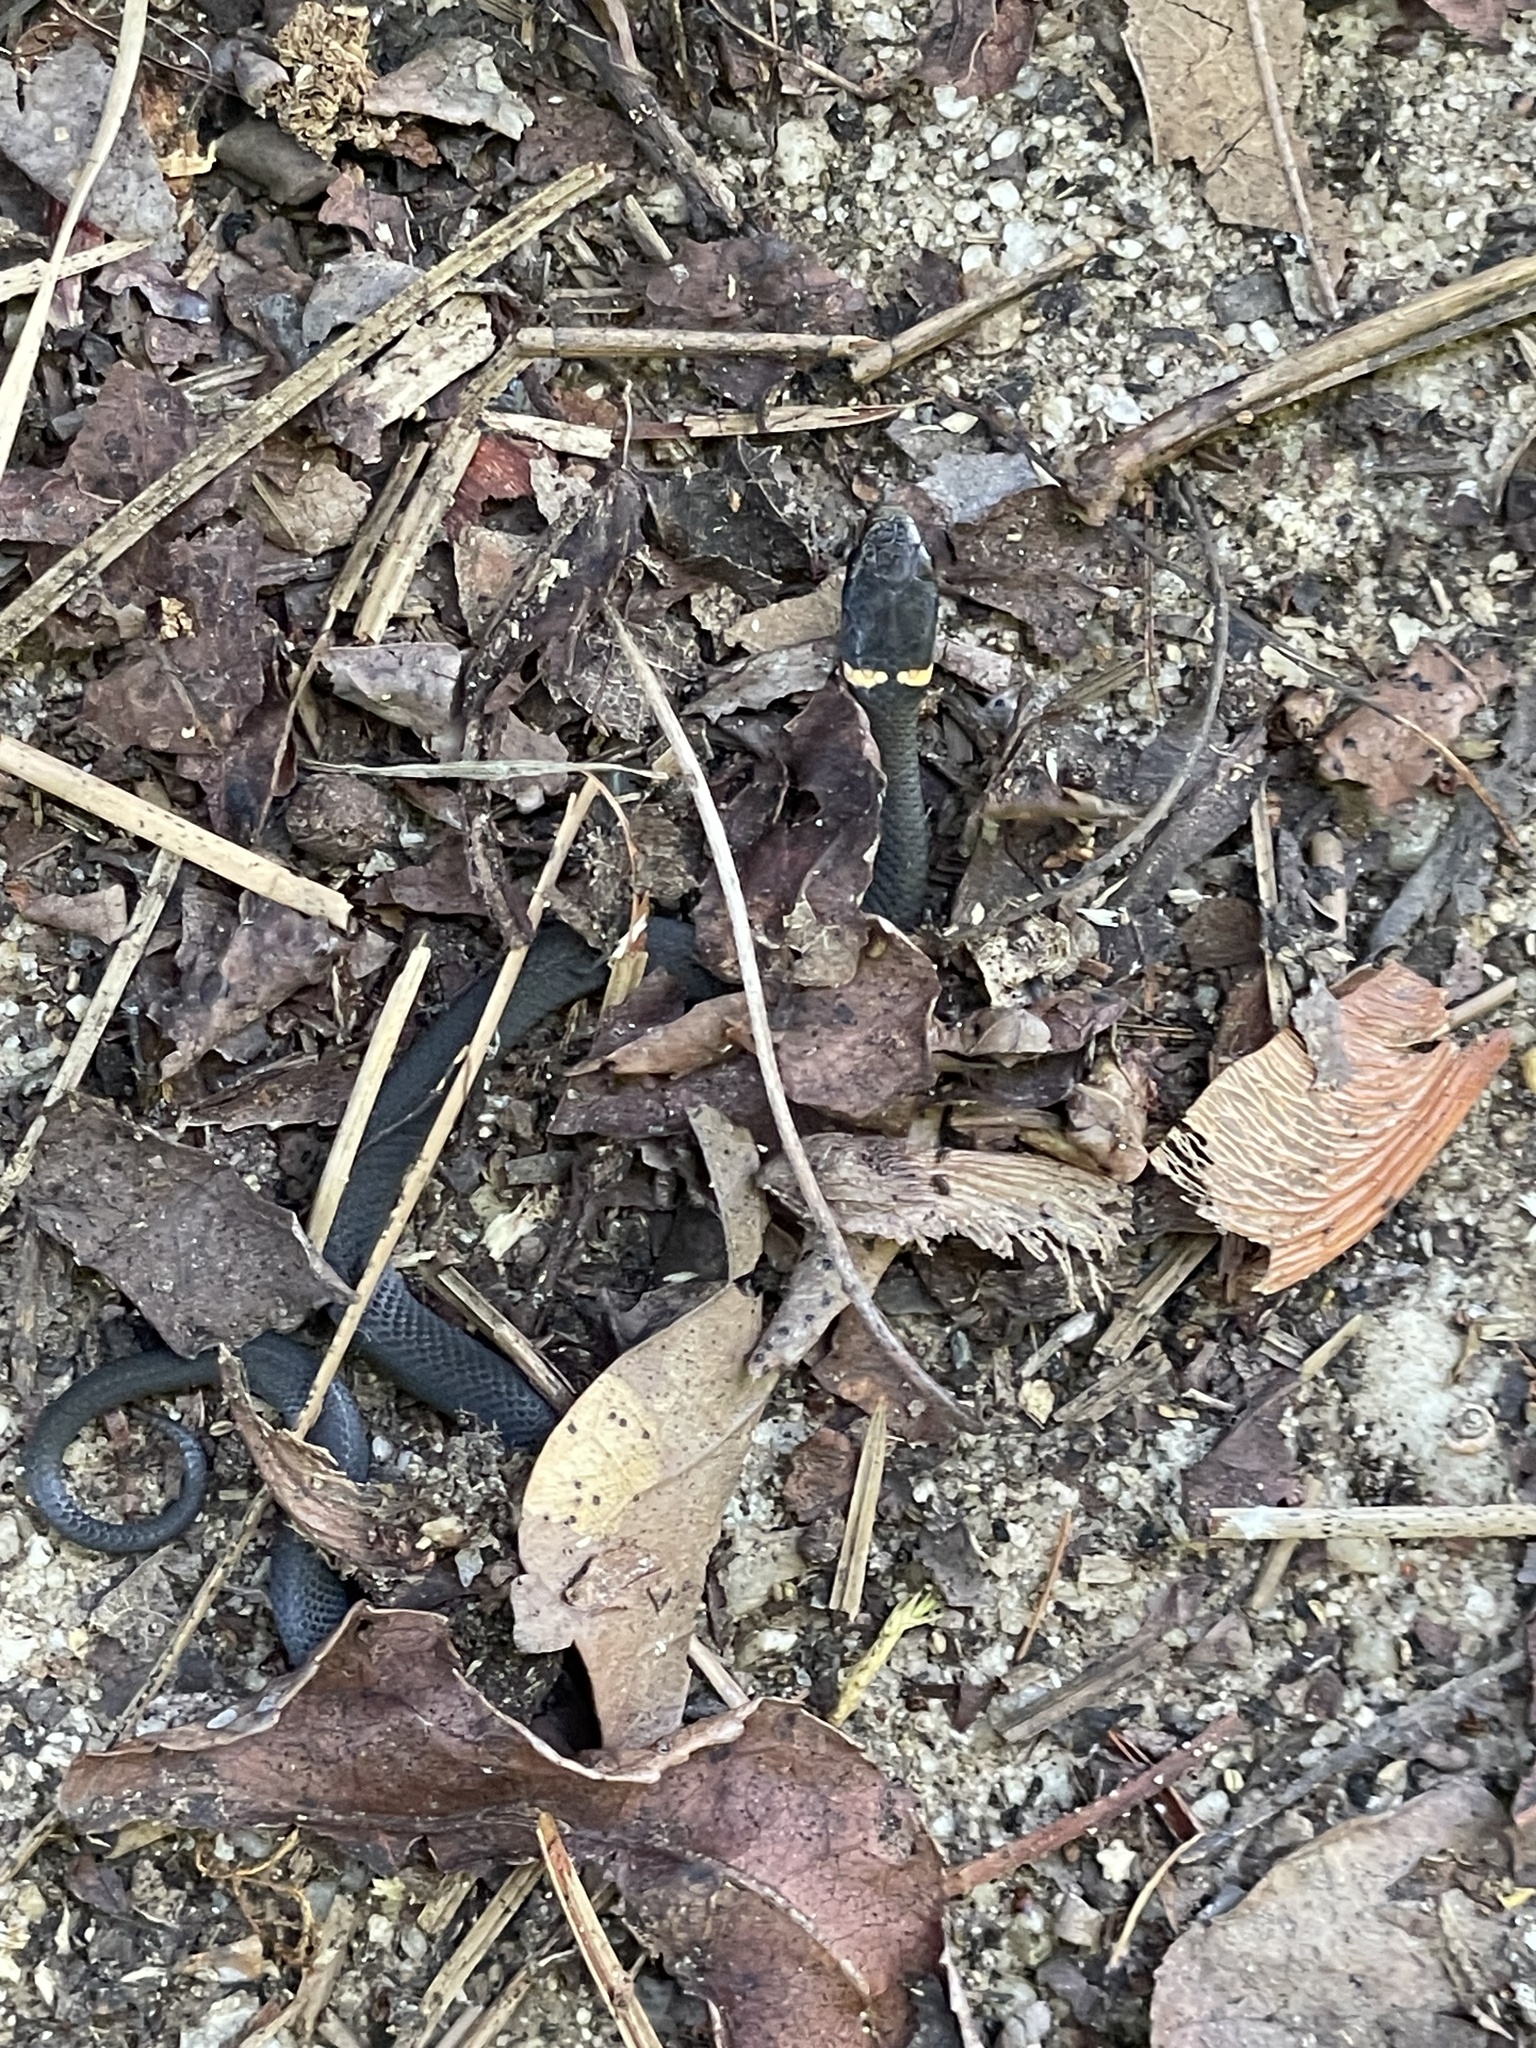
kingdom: Animalia
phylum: Chordata
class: Squamata
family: Colubridae
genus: Diadophis
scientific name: Diadophis punctatus
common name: Ringneck snake
